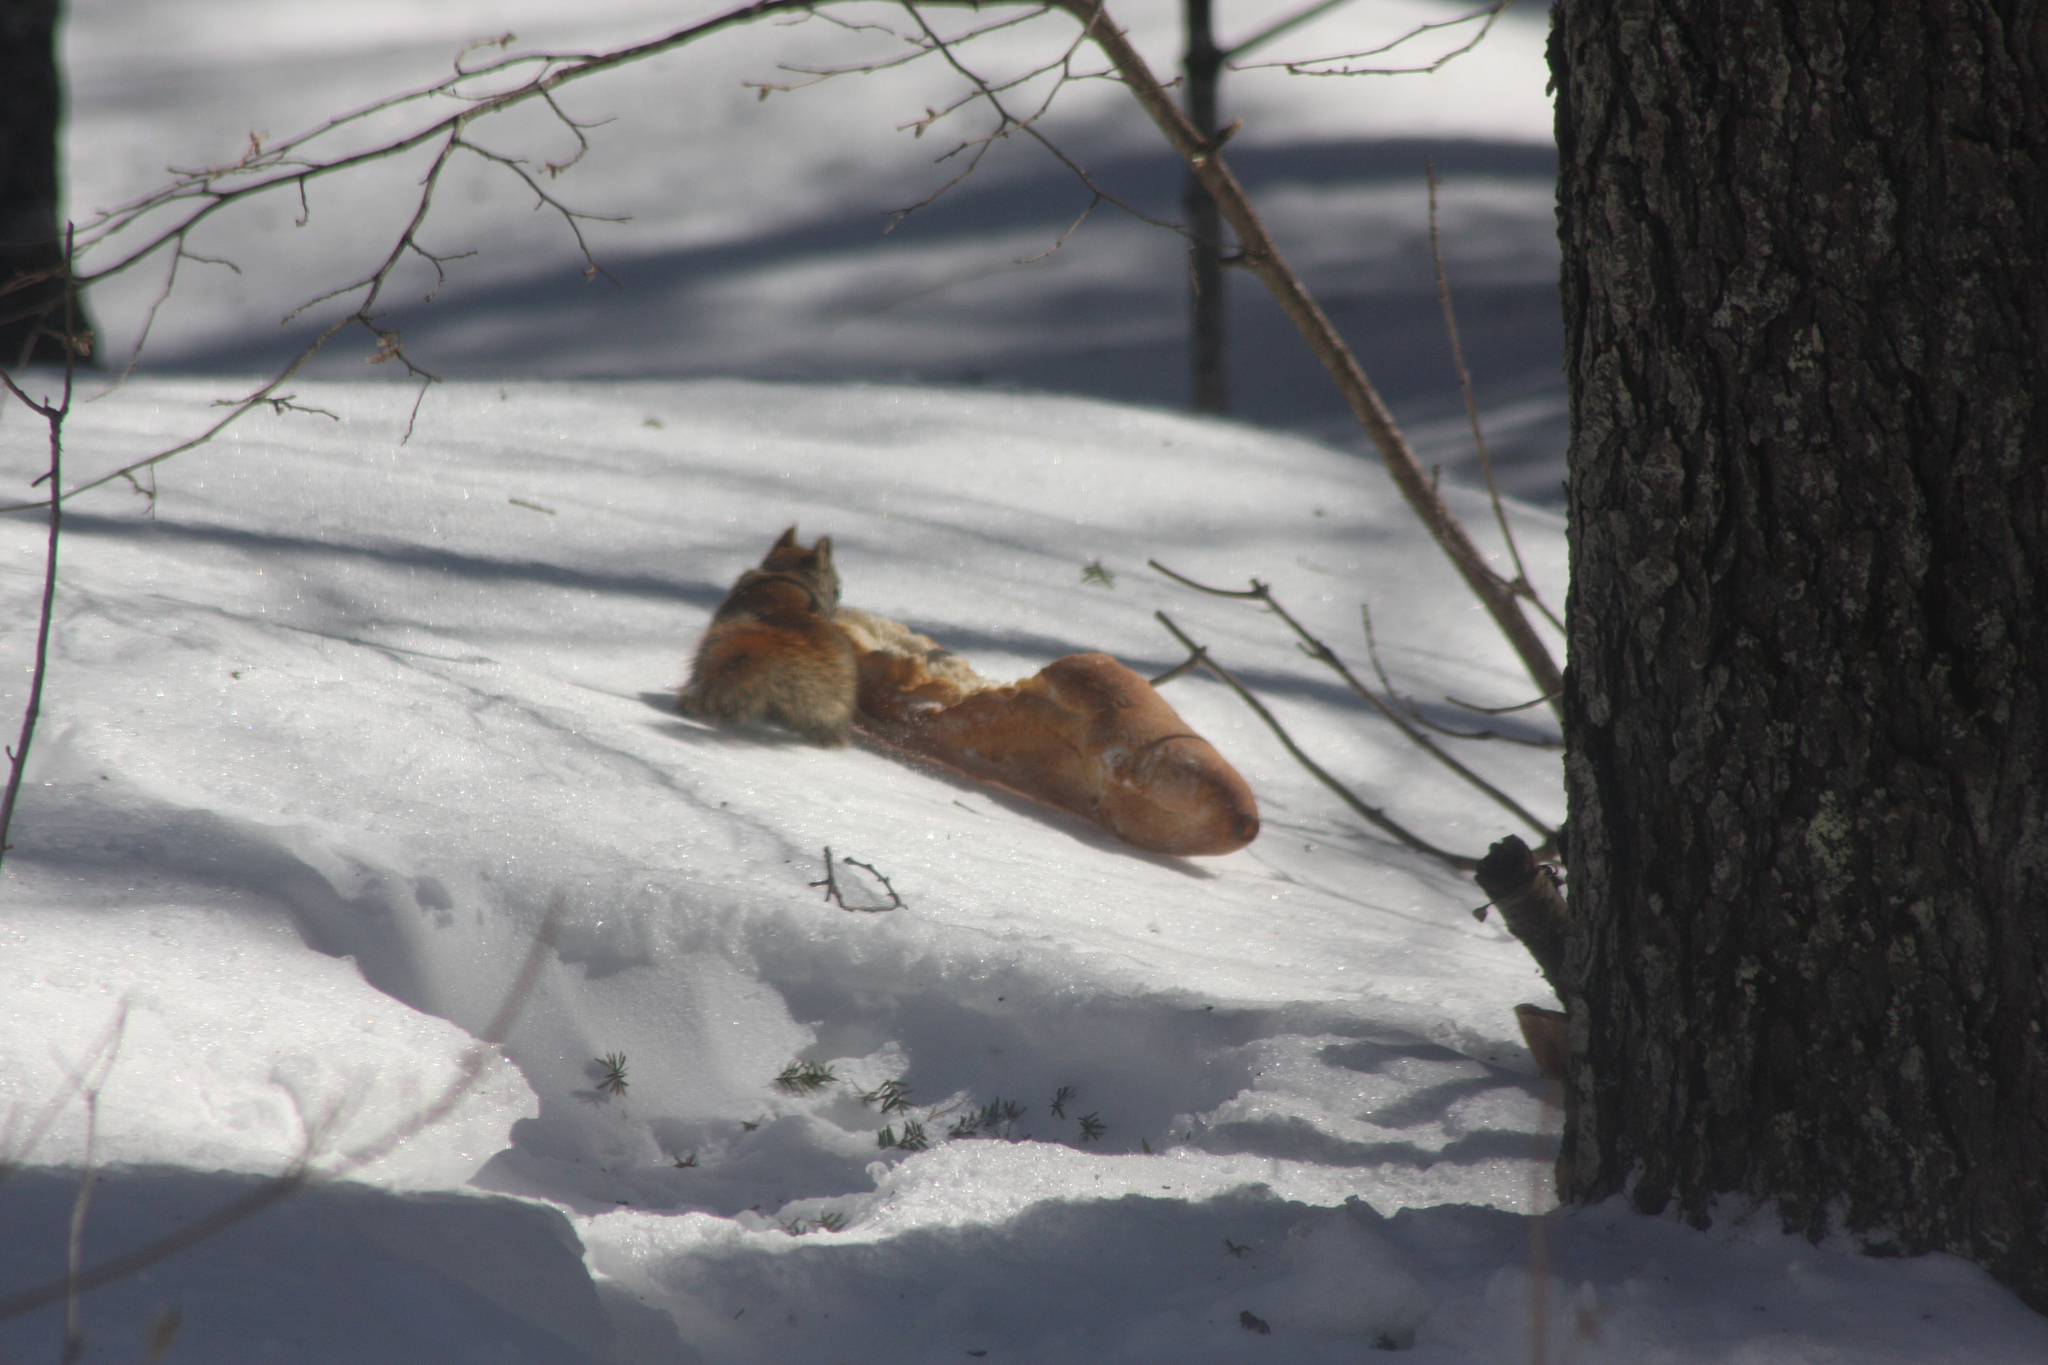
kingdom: Animalia
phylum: Chordata
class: Mammalia
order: Rodentia
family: Sciuridae
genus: Tamiasciurus
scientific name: Tamiasciurus hudsonicus
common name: Red squirrel
